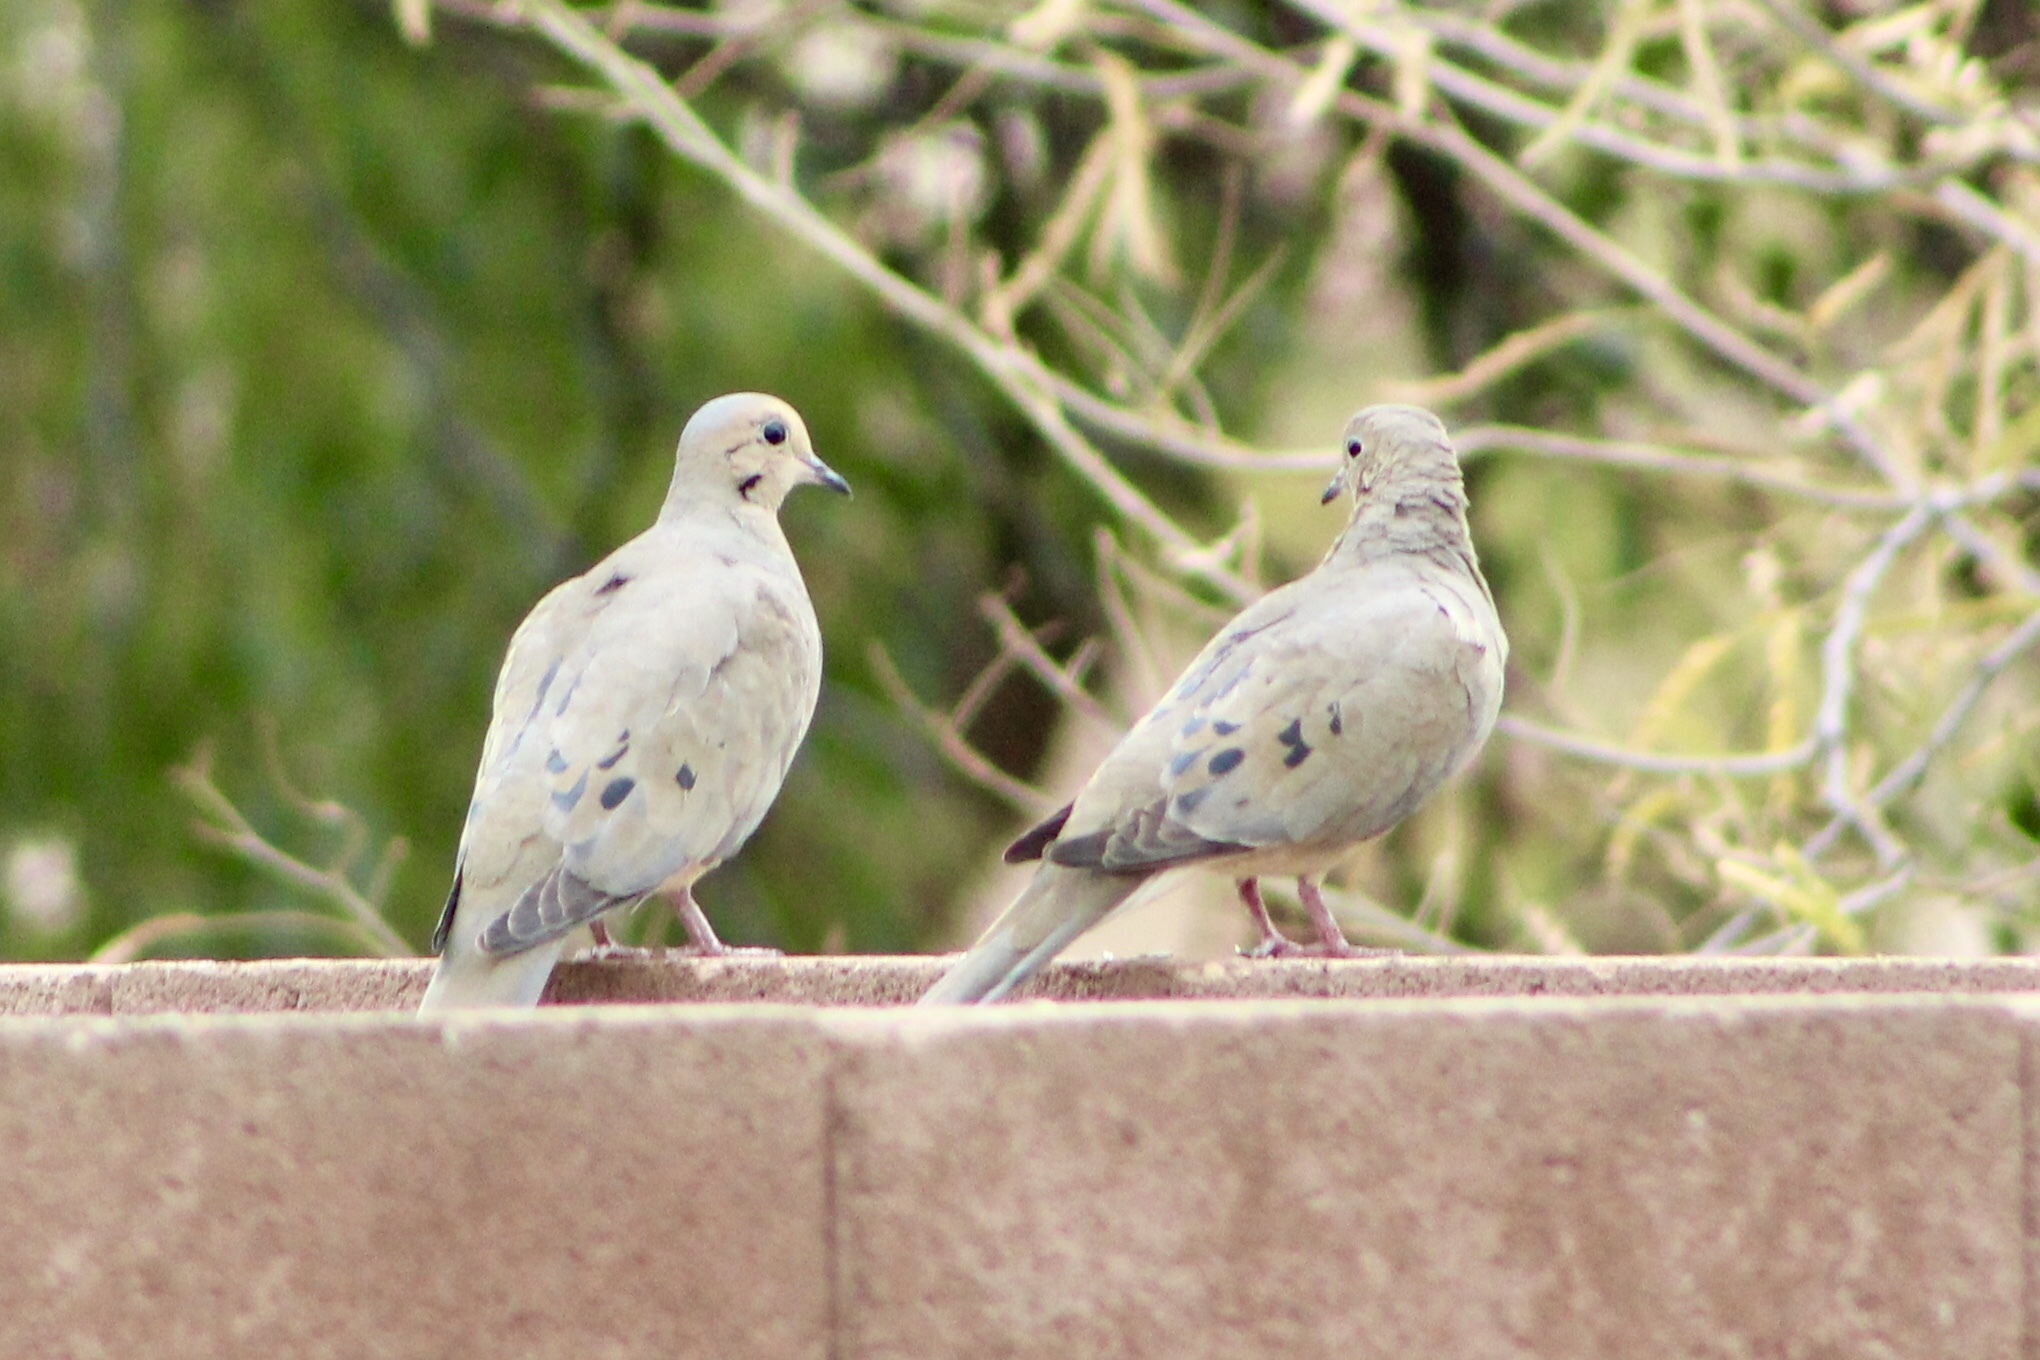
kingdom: Animalia
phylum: Chordata
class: Aves
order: Columbiformes
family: Columbidae
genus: Zenaida
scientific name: Zenaida macroura
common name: Mourning dove
